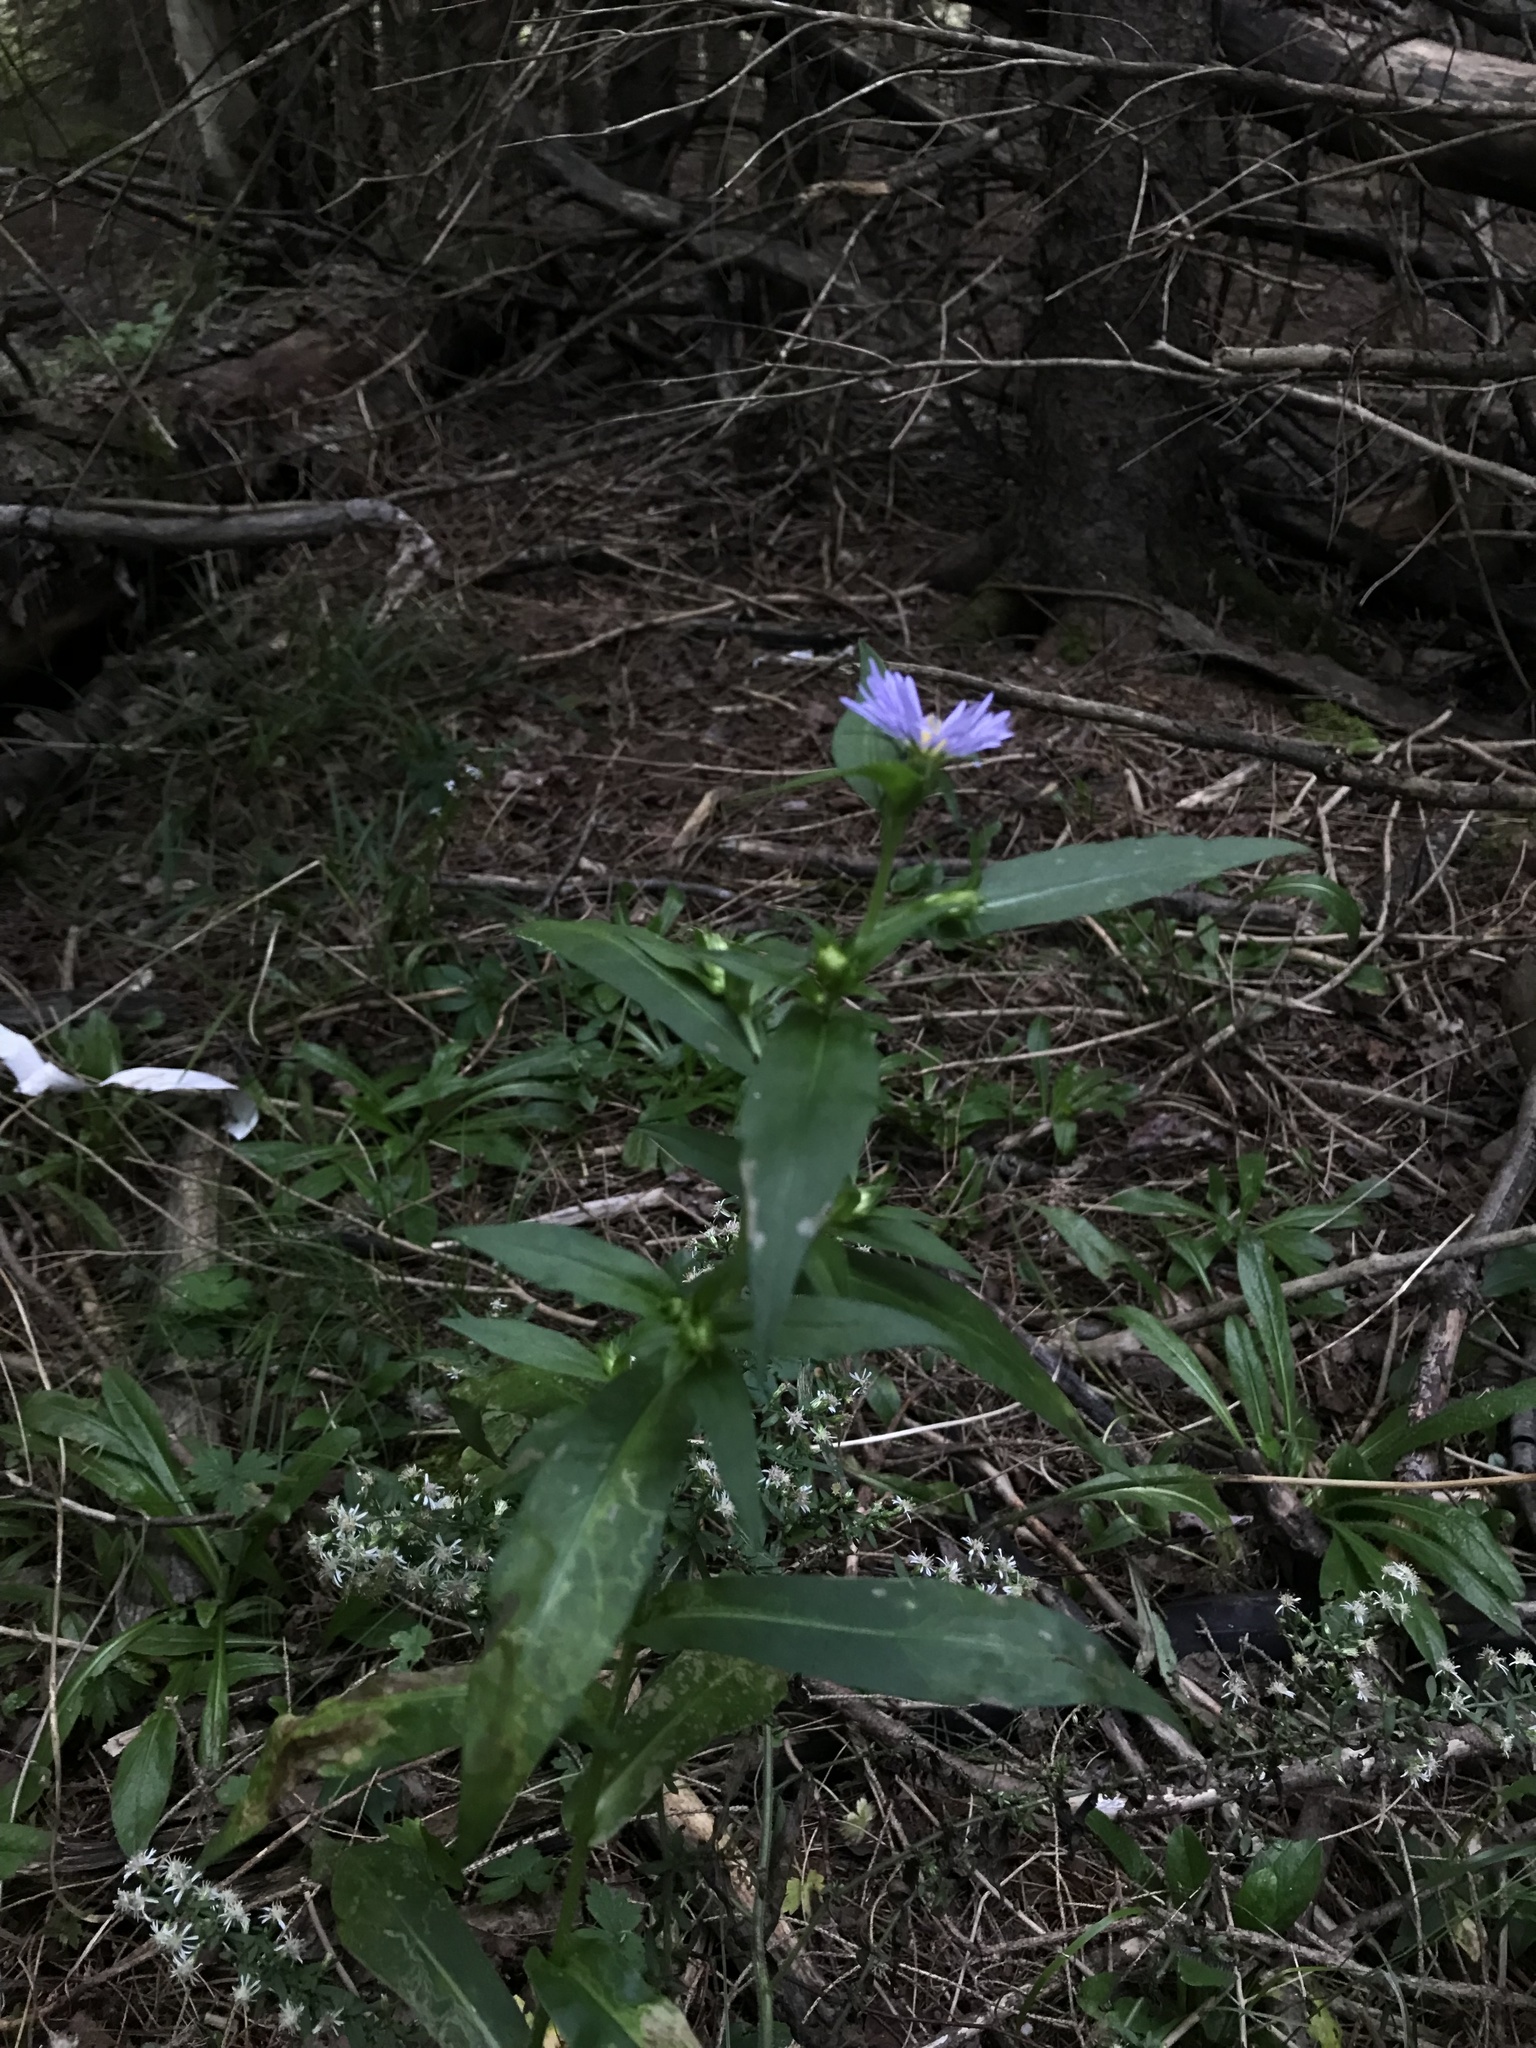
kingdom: Plantae
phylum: Tracheophyta
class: Magnoliopsida
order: Asterales
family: Asteraceae
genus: Symphyotrichum
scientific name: Symphyotrichum puniceum
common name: Bog aster
